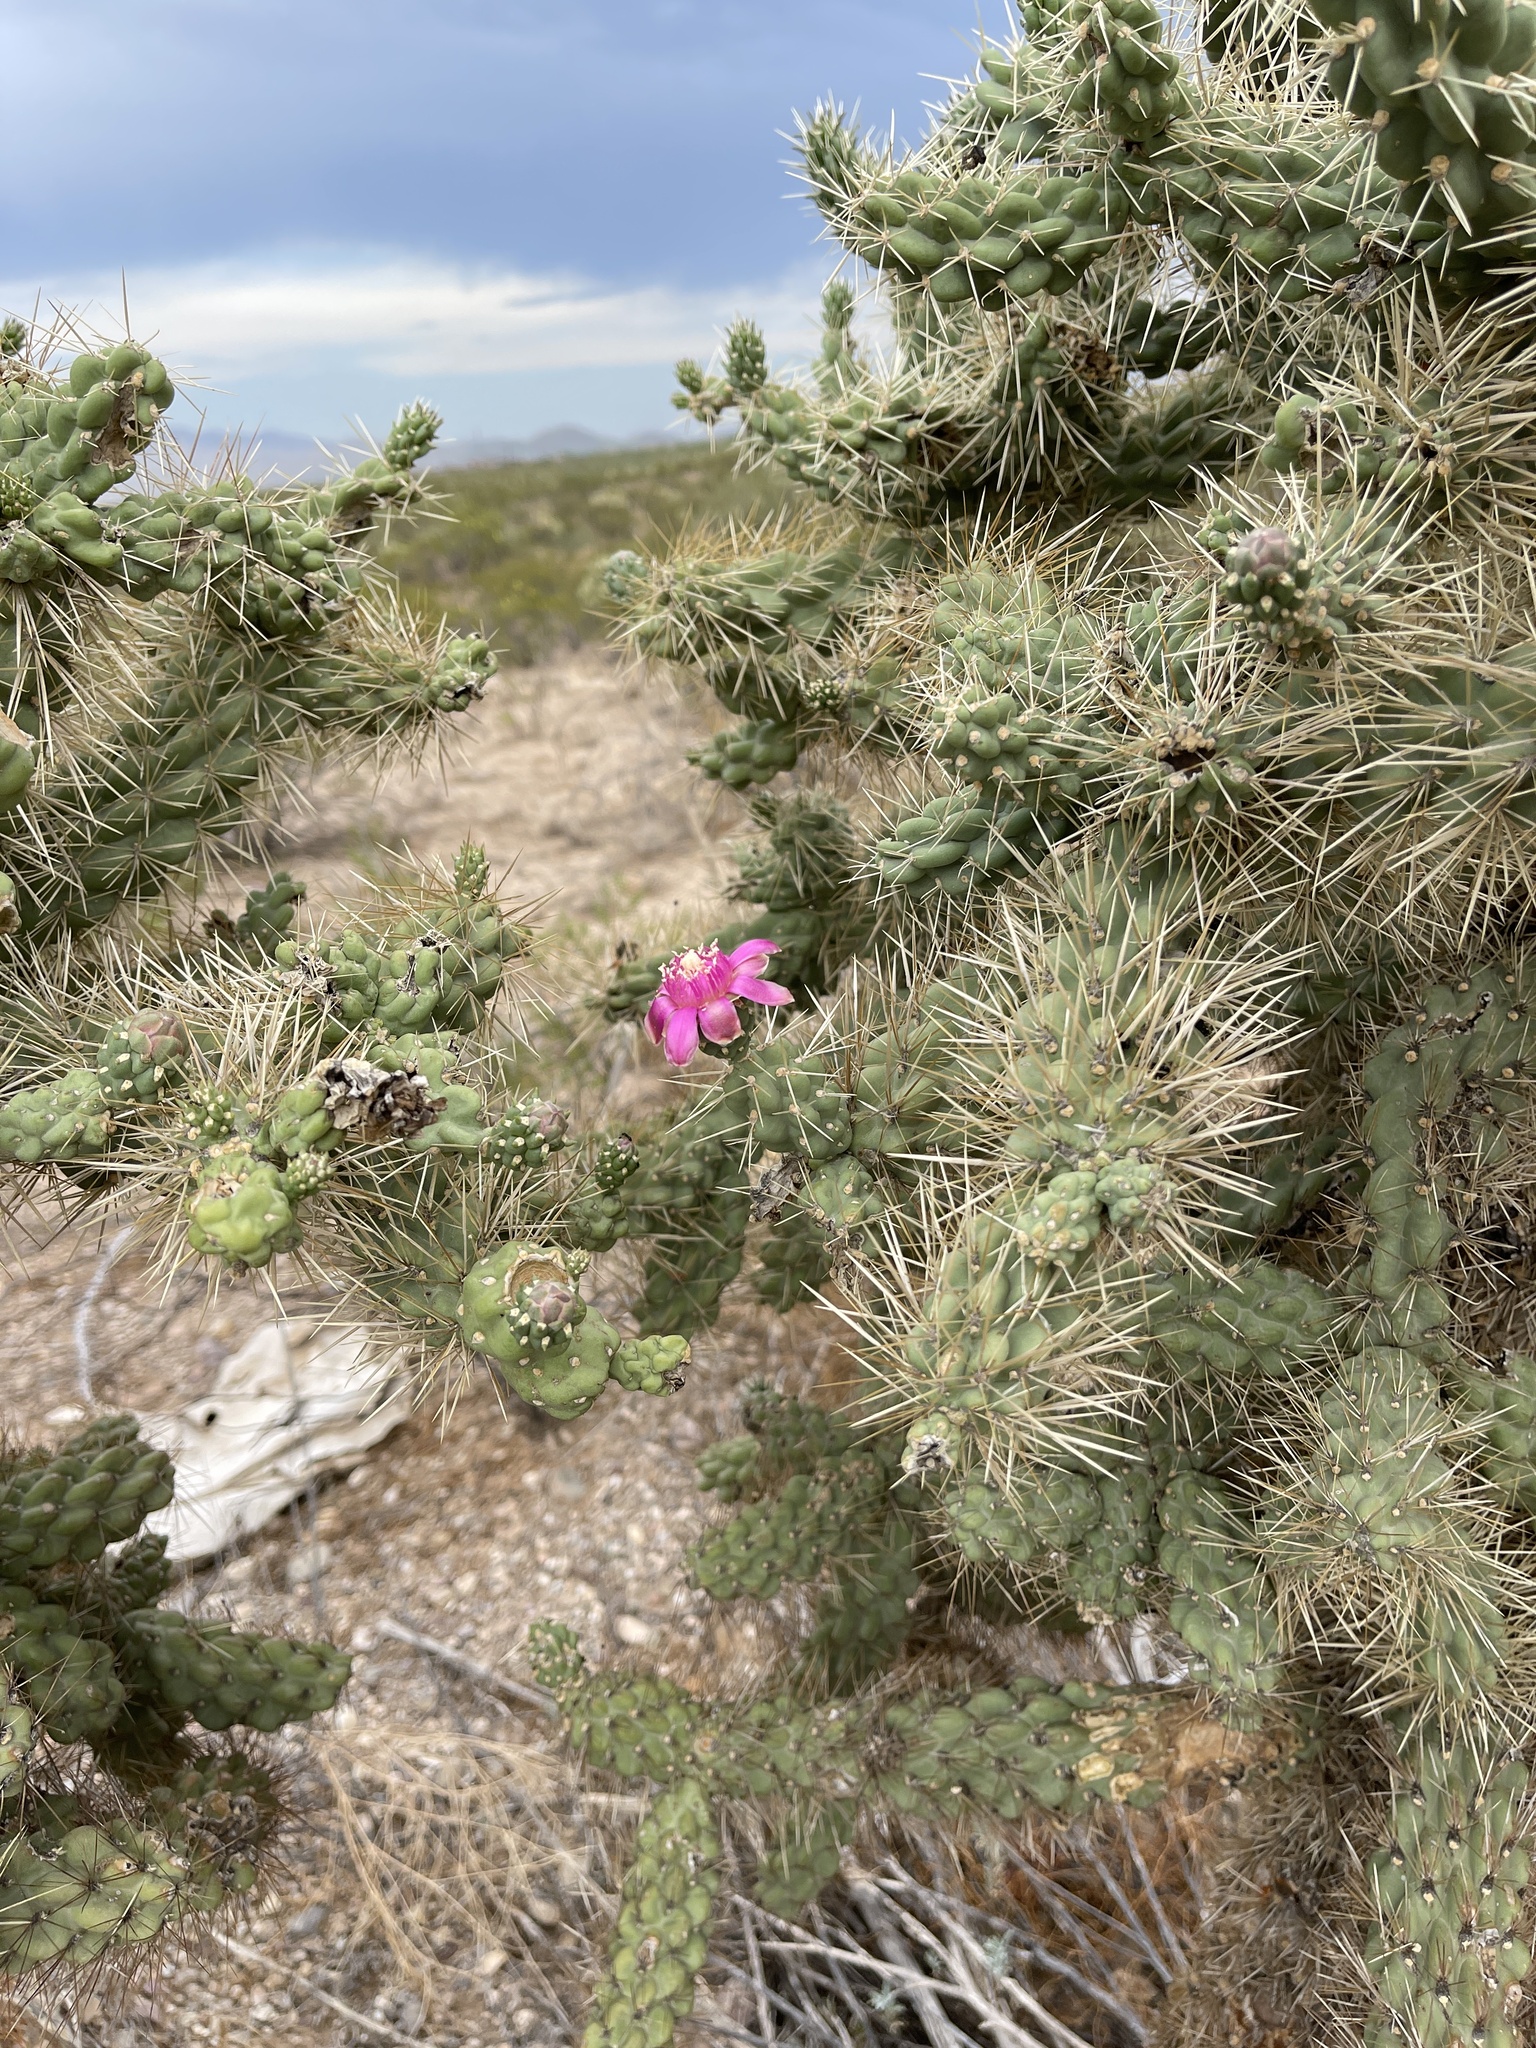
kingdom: Plantae
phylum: Tracheophyta
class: Magnoliopsida
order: Caryophyllales
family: Cactaceae
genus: Cylindropuntia
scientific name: Cylindropuntia fulgida
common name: Jumping cholla
